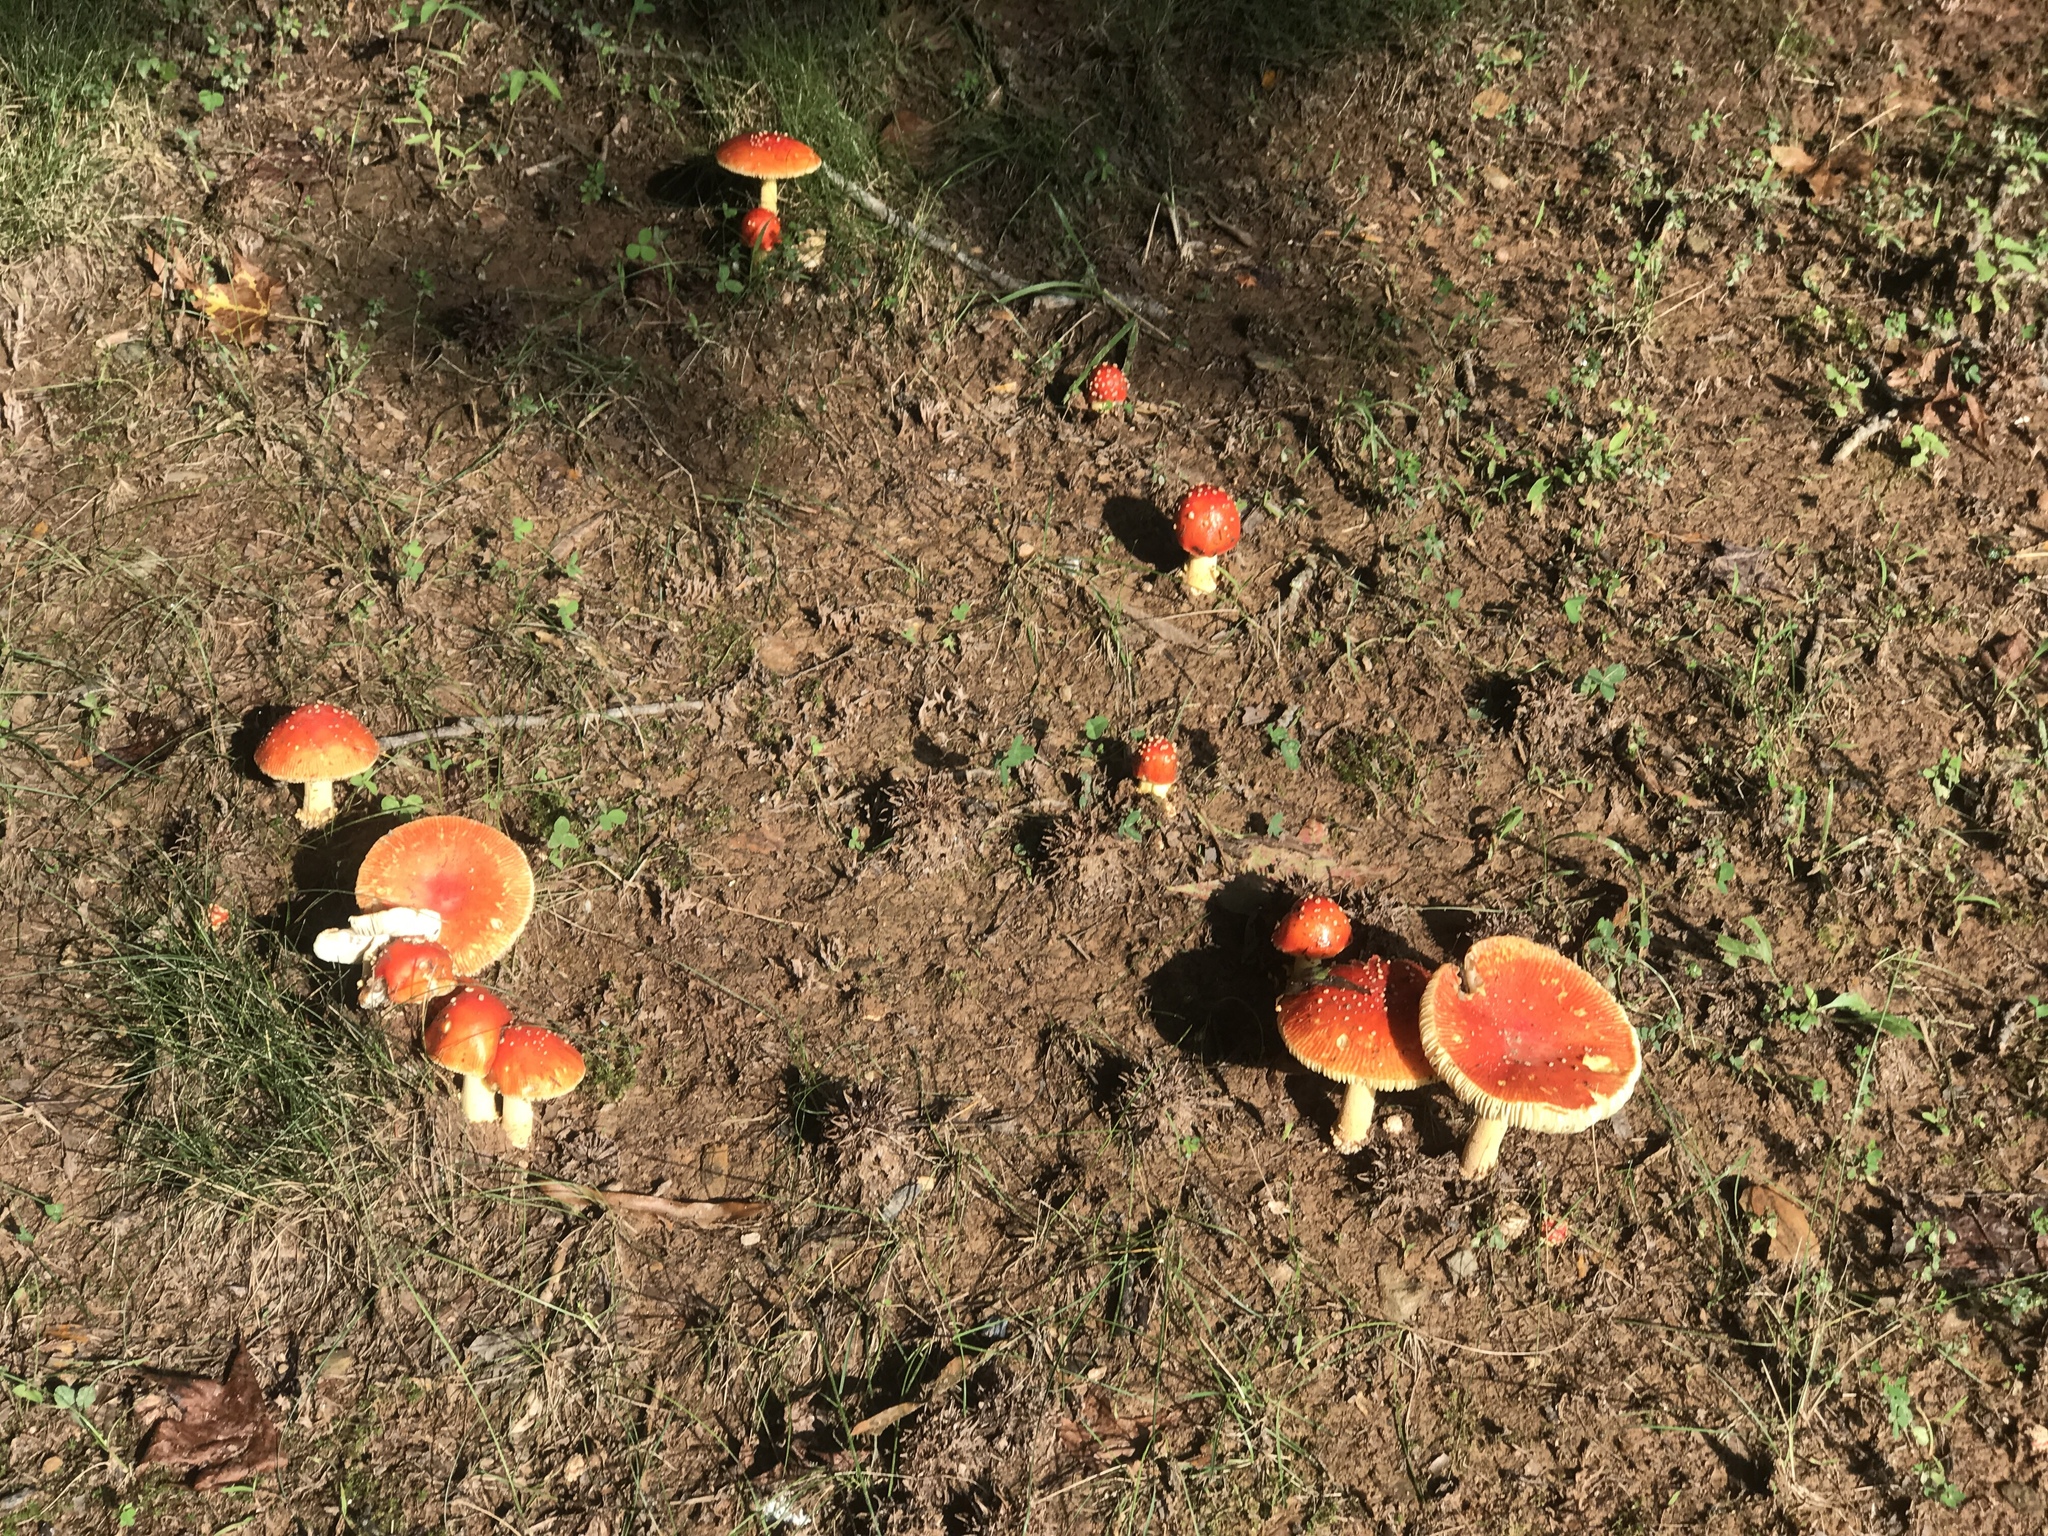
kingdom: Fungi
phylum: Basidiomycota
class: Agaricomycetes
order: Agaricales
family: Amanitaceae
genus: Amanita
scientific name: Amanita parcivolvata
